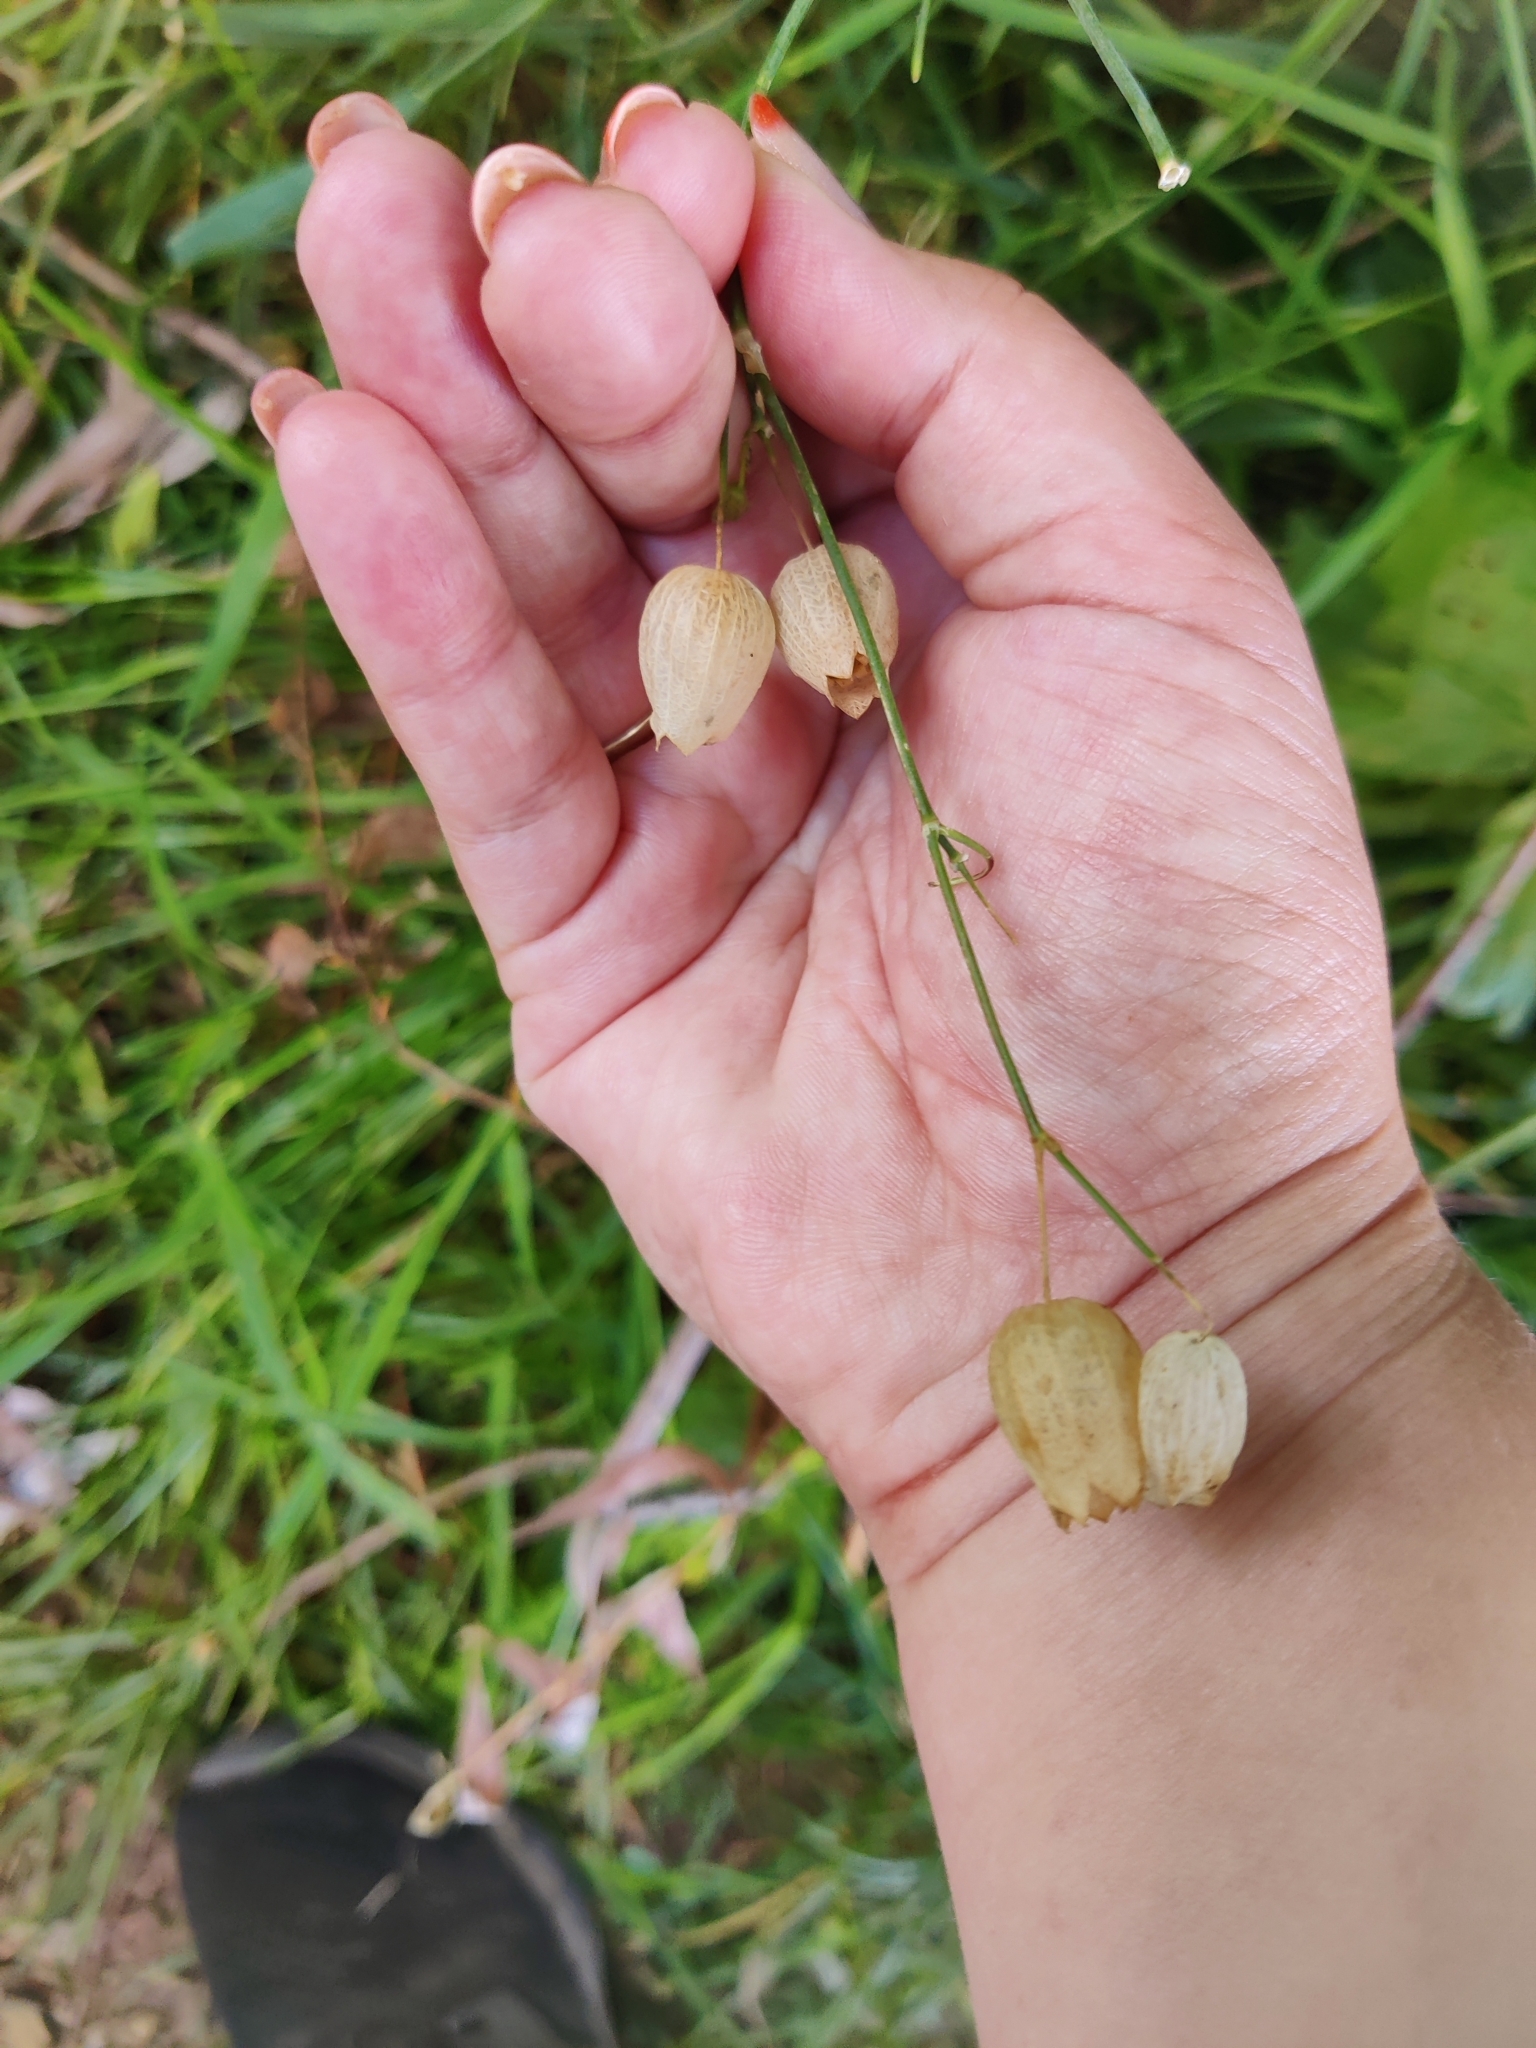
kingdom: Plantae
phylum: Tracheophyta
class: Magnoliopsida
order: Caryophyllales
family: Caryophyllaceae
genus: Silene
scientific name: Silene vulgaris
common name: Bladder campion
